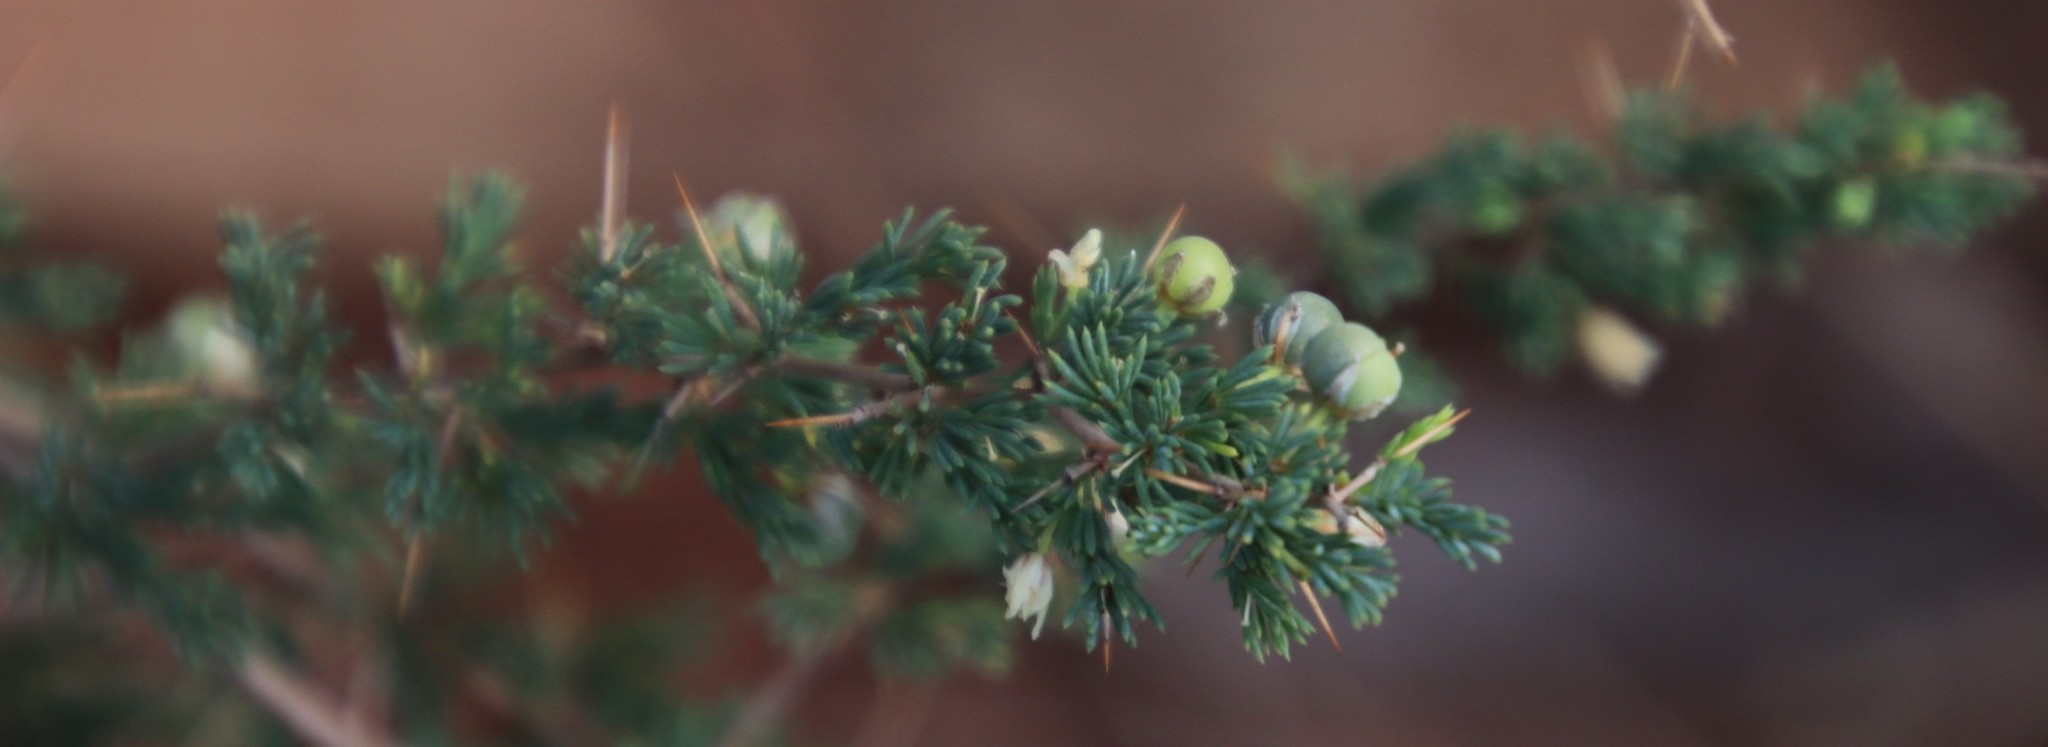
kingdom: Plantae
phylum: Tracheophyta
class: Liliopsida
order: Asparagales
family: Asparagaceae
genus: Asparagus
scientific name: Asparagus suaveolens
